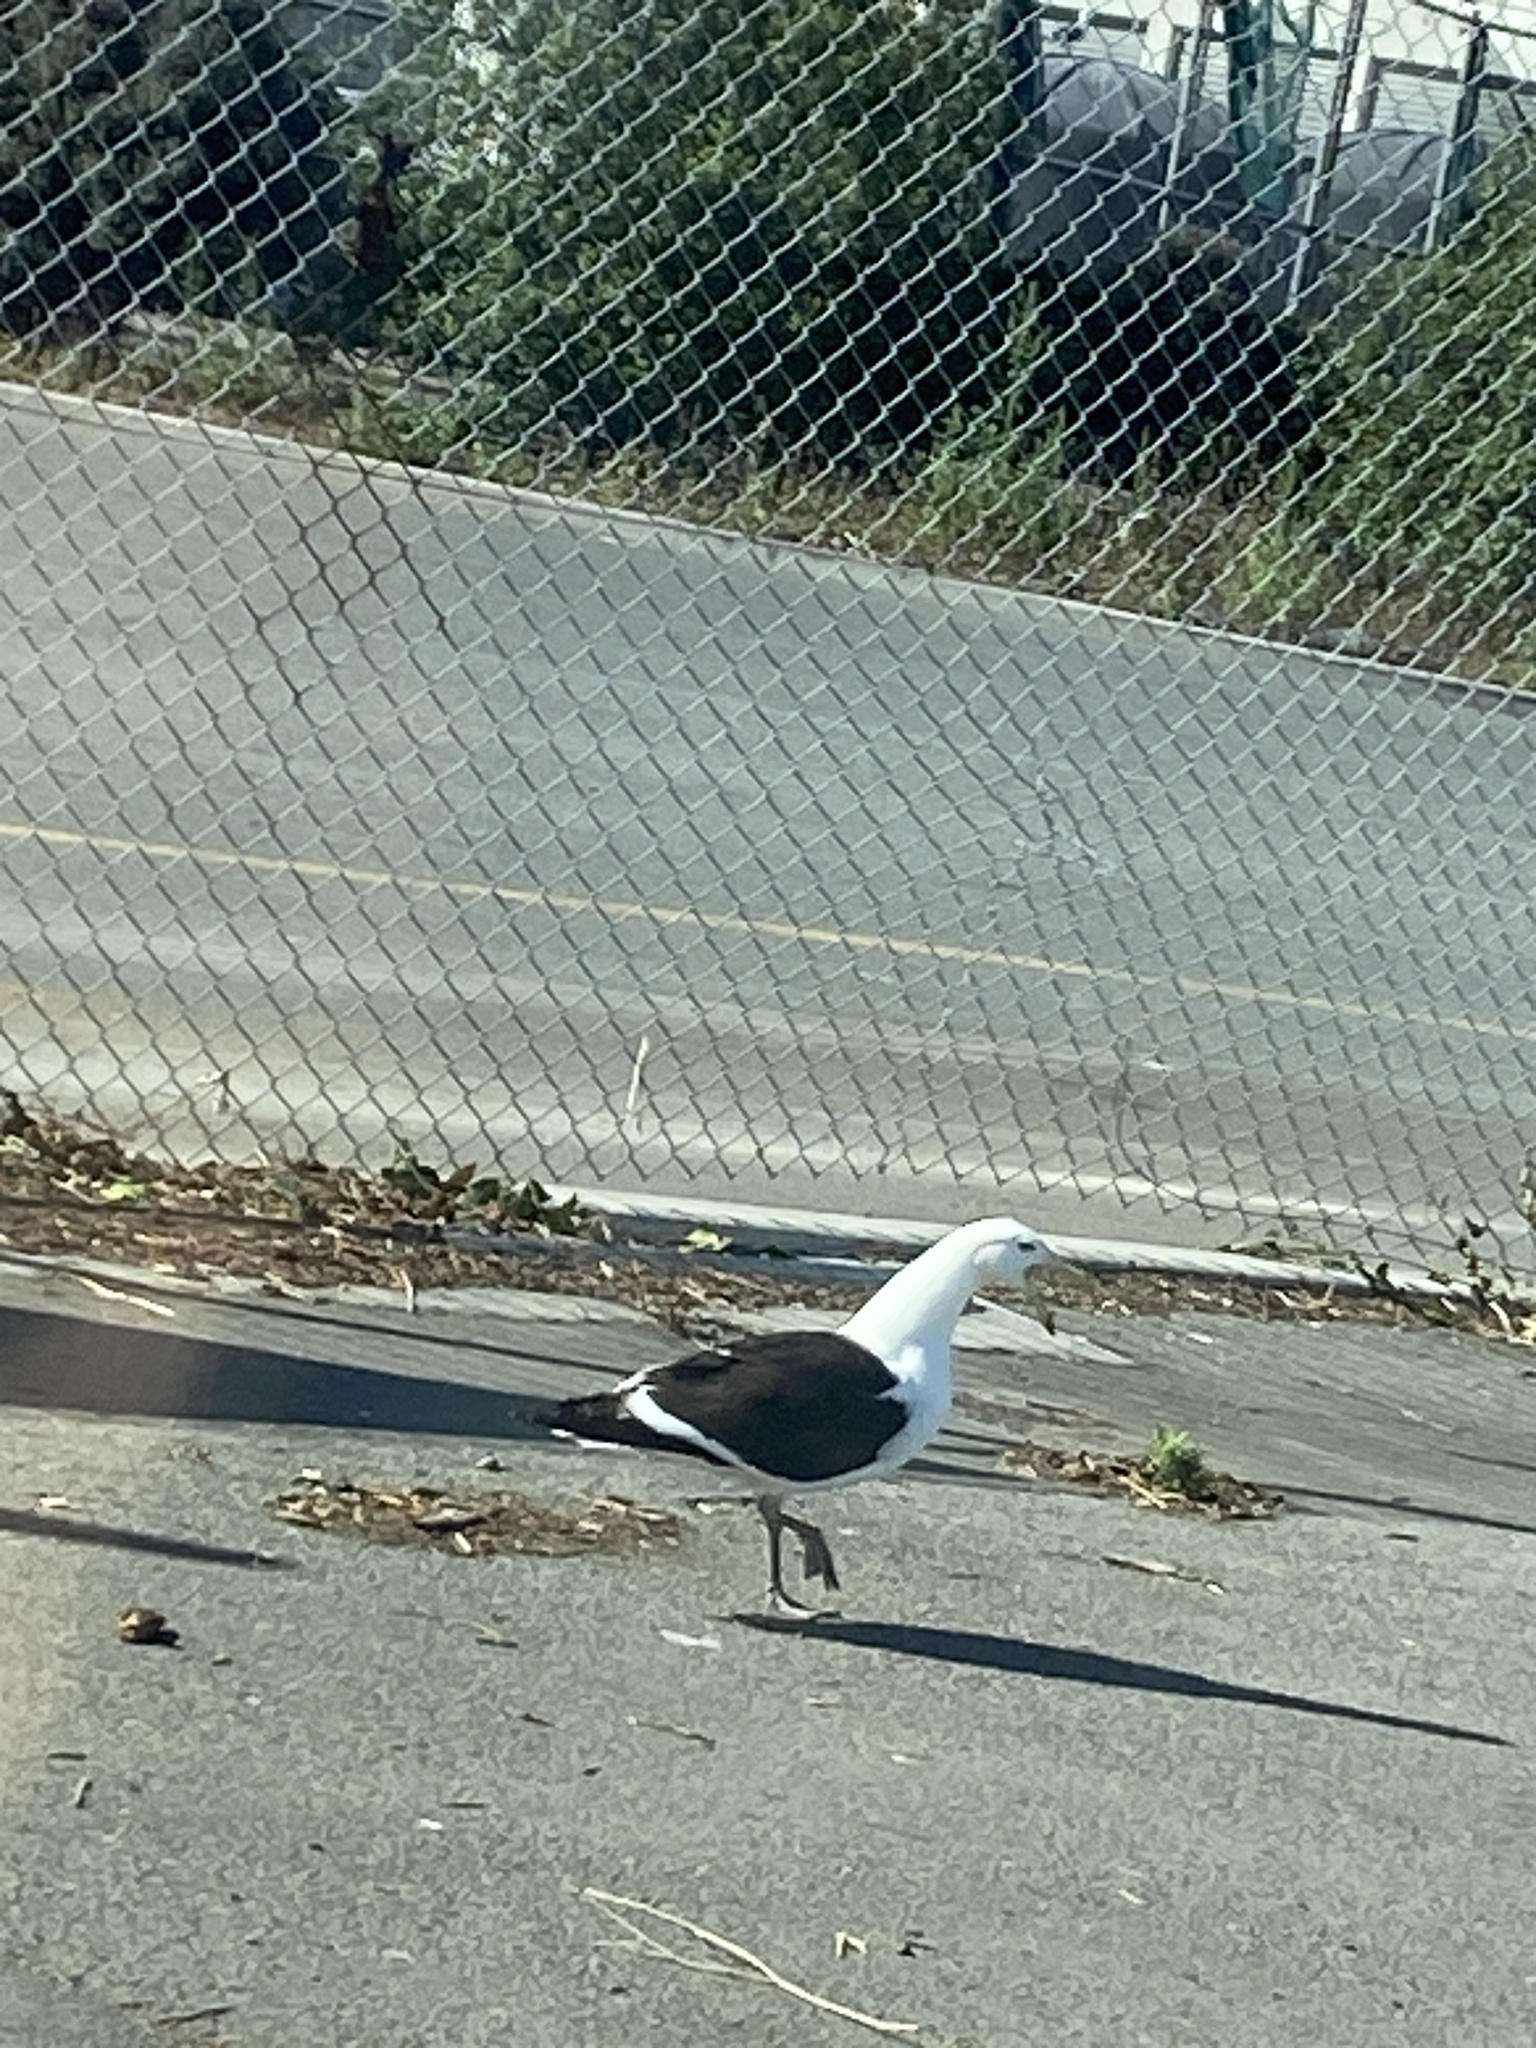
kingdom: Animalia
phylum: Chordata
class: Aves
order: Charadriiformes
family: Laridae
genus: Larus
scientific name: Larus dominicanus
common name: Kelp gull
